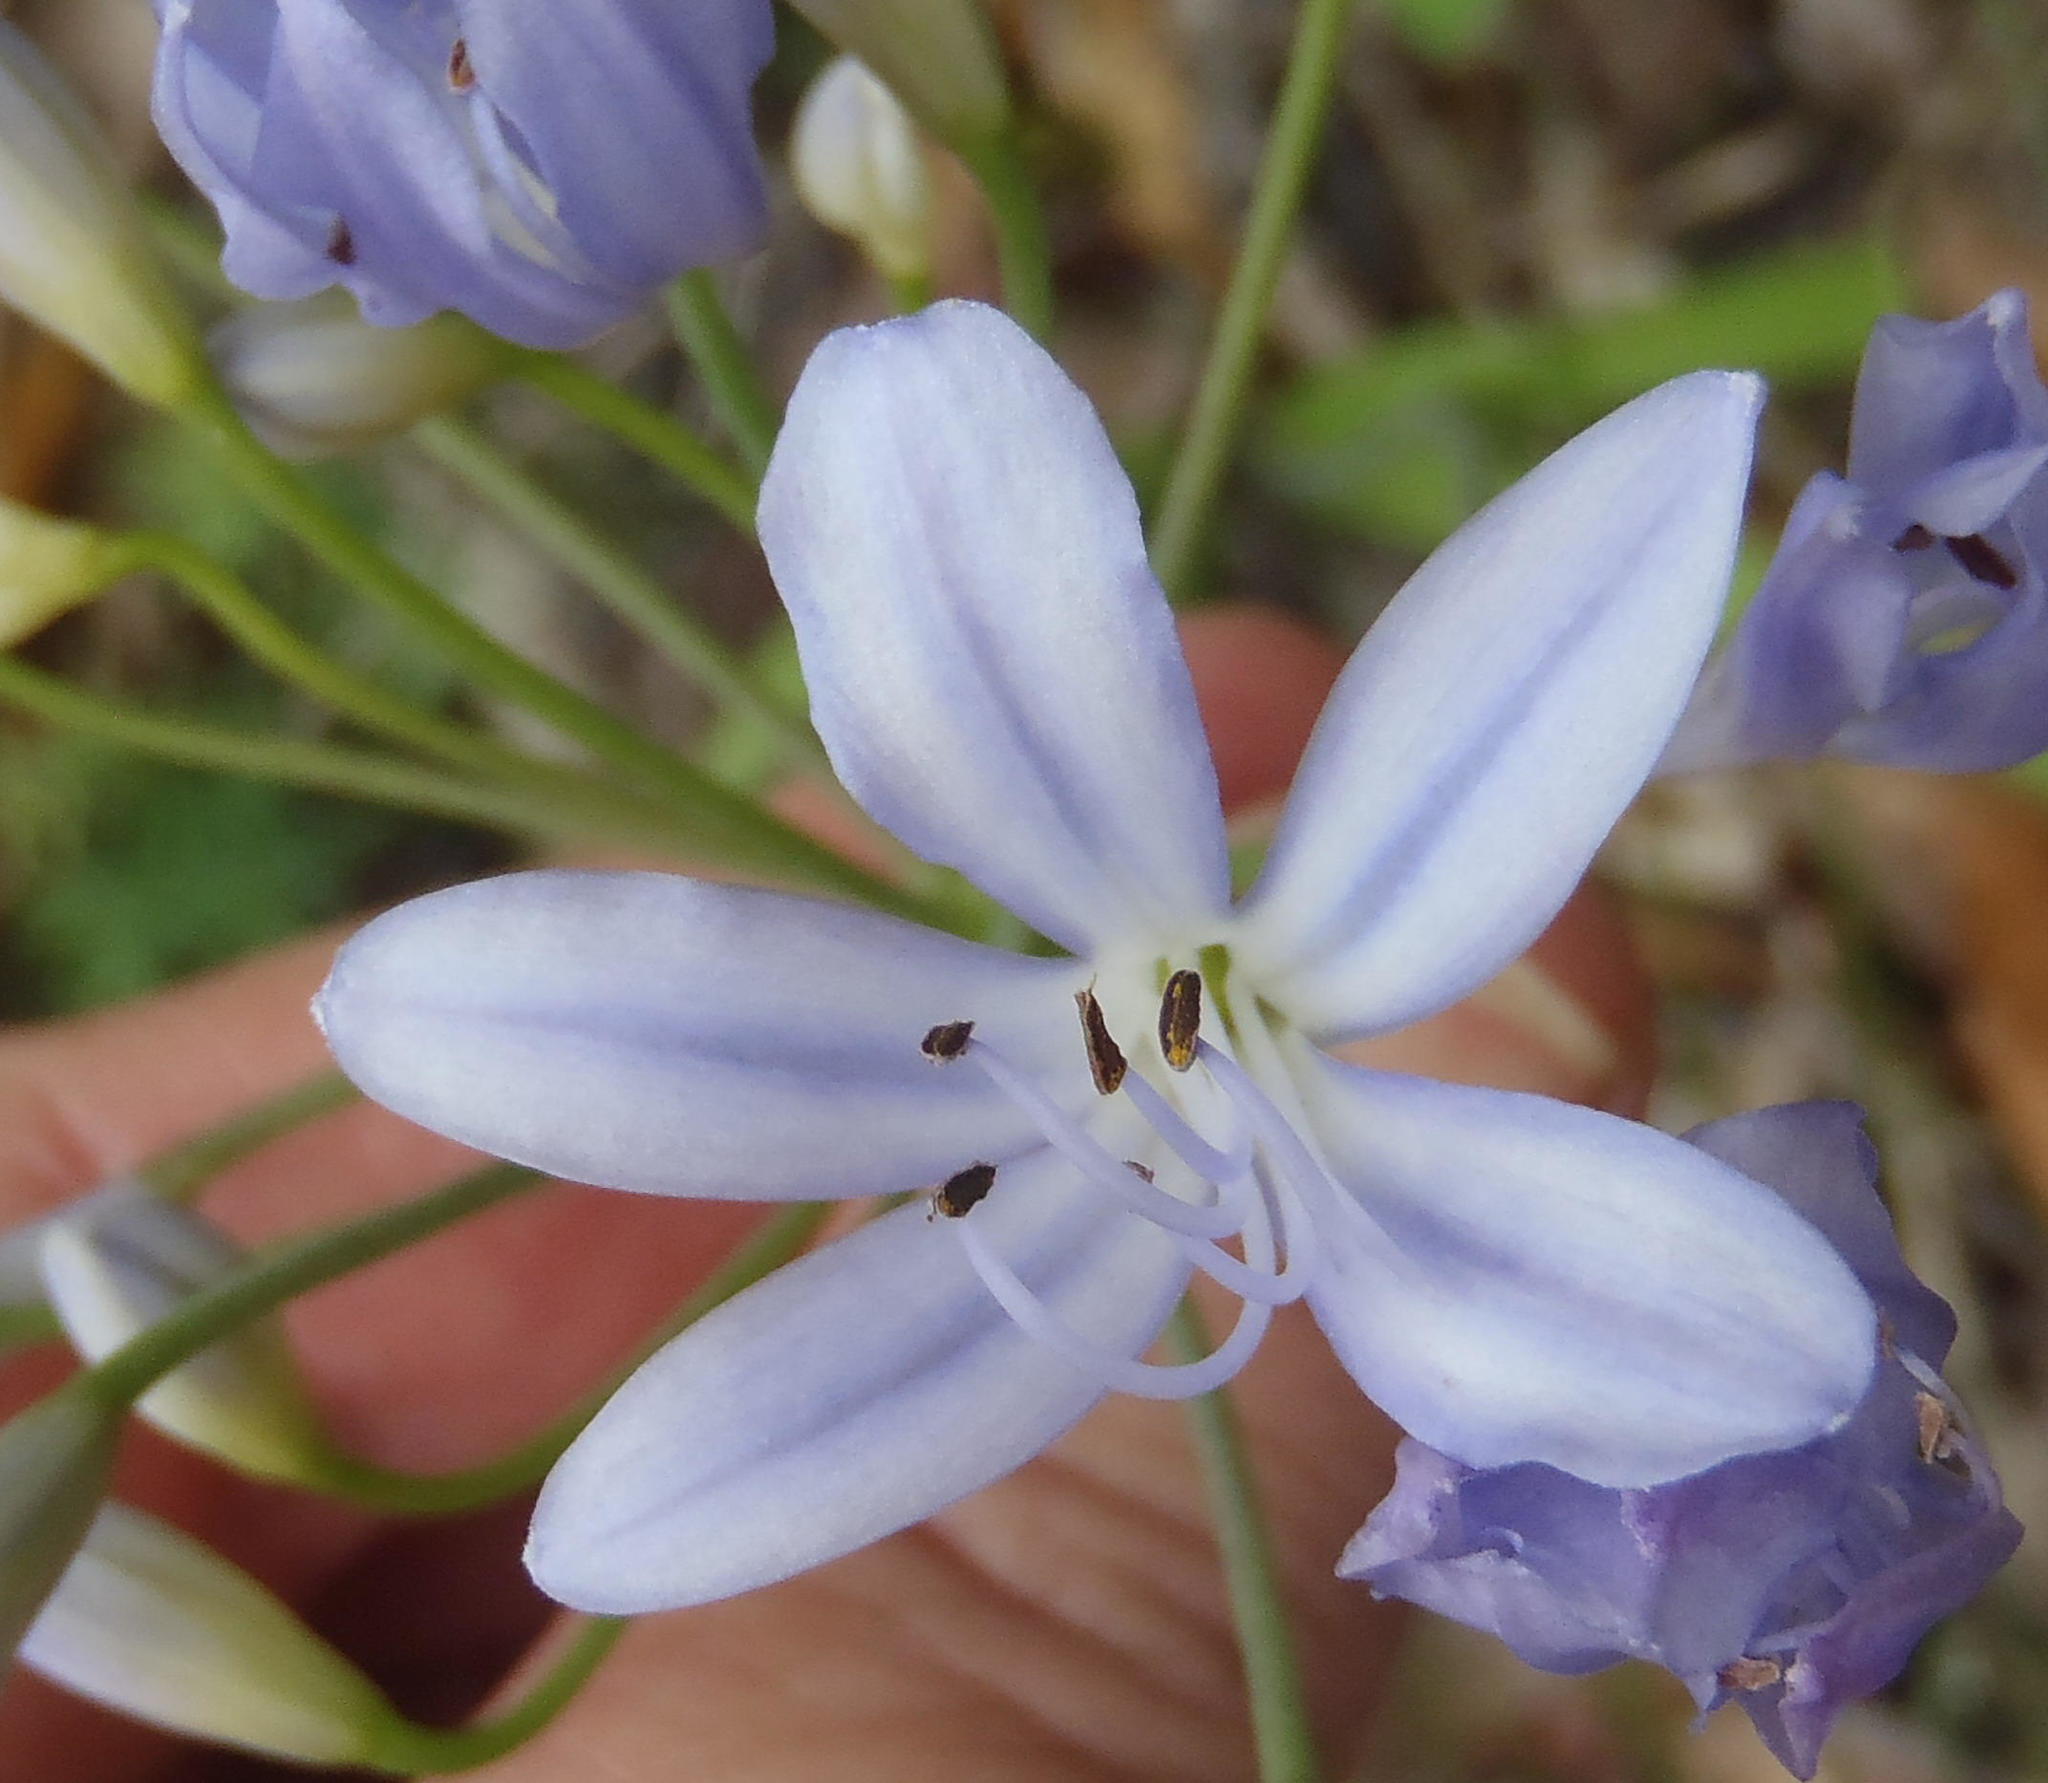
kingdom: Plantae
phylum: Tracheophyta
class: Liliopsida
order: Asparagales
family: Amaryllidaceae
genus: Agapanthus
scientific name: Agapanthus praecox
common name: African-lily
